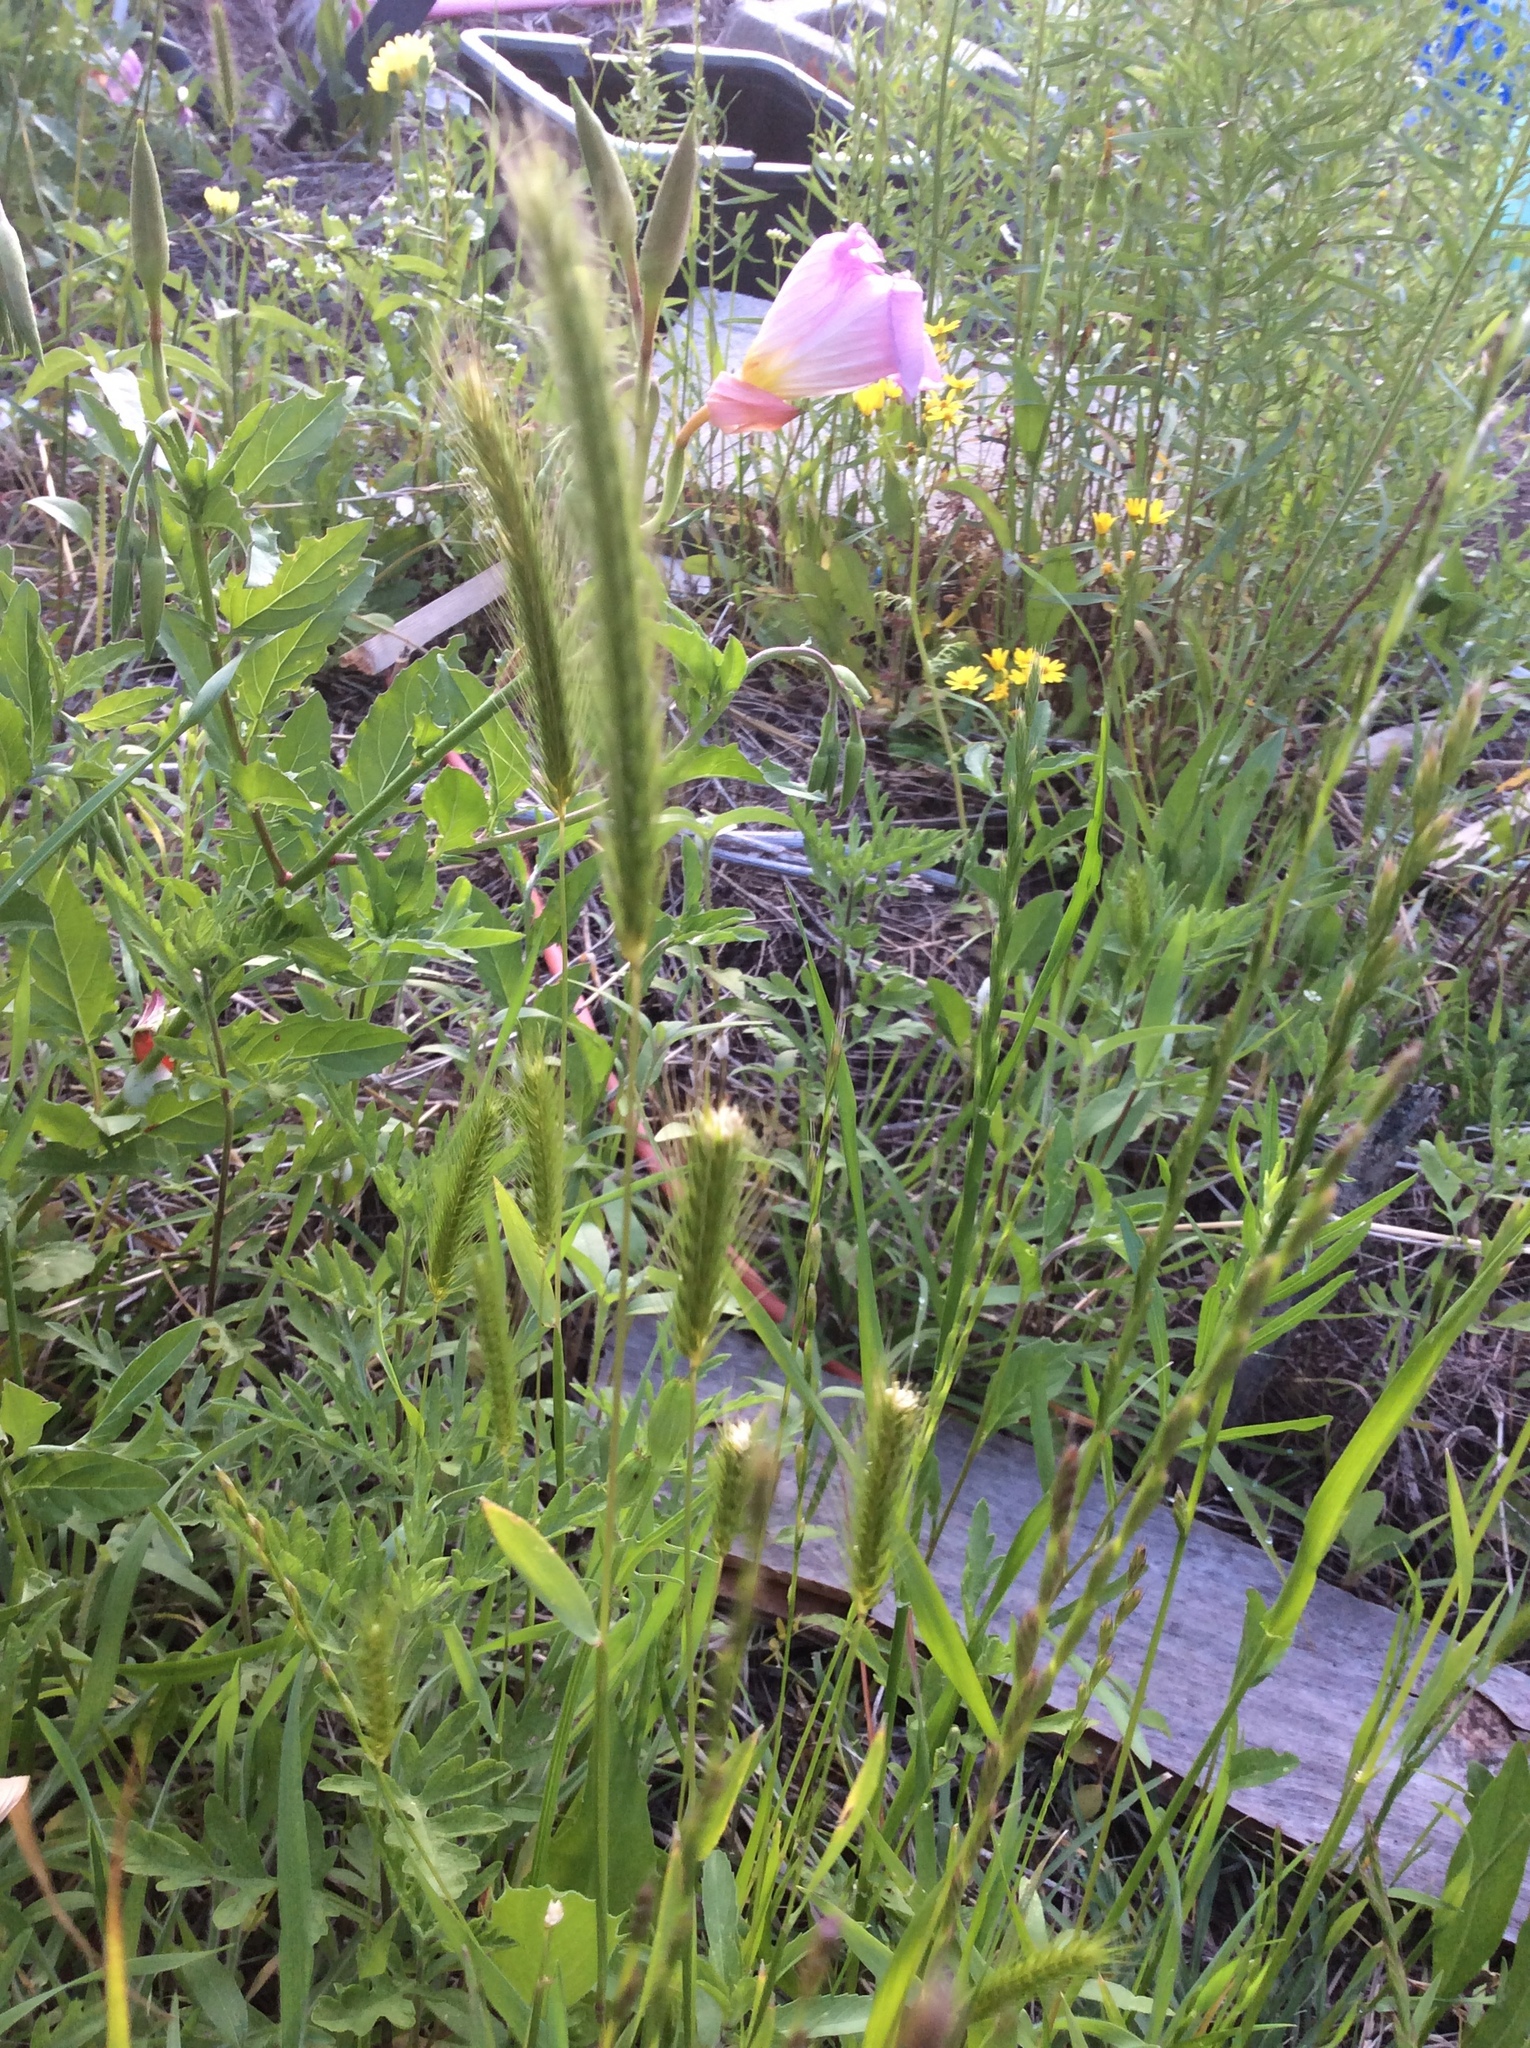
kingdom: Plantae
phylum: Tracheophyta
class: Liliopsida
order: Poales
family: Poaceae
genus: Hordeum
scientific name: Hordeum pusillum
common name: Little barley
